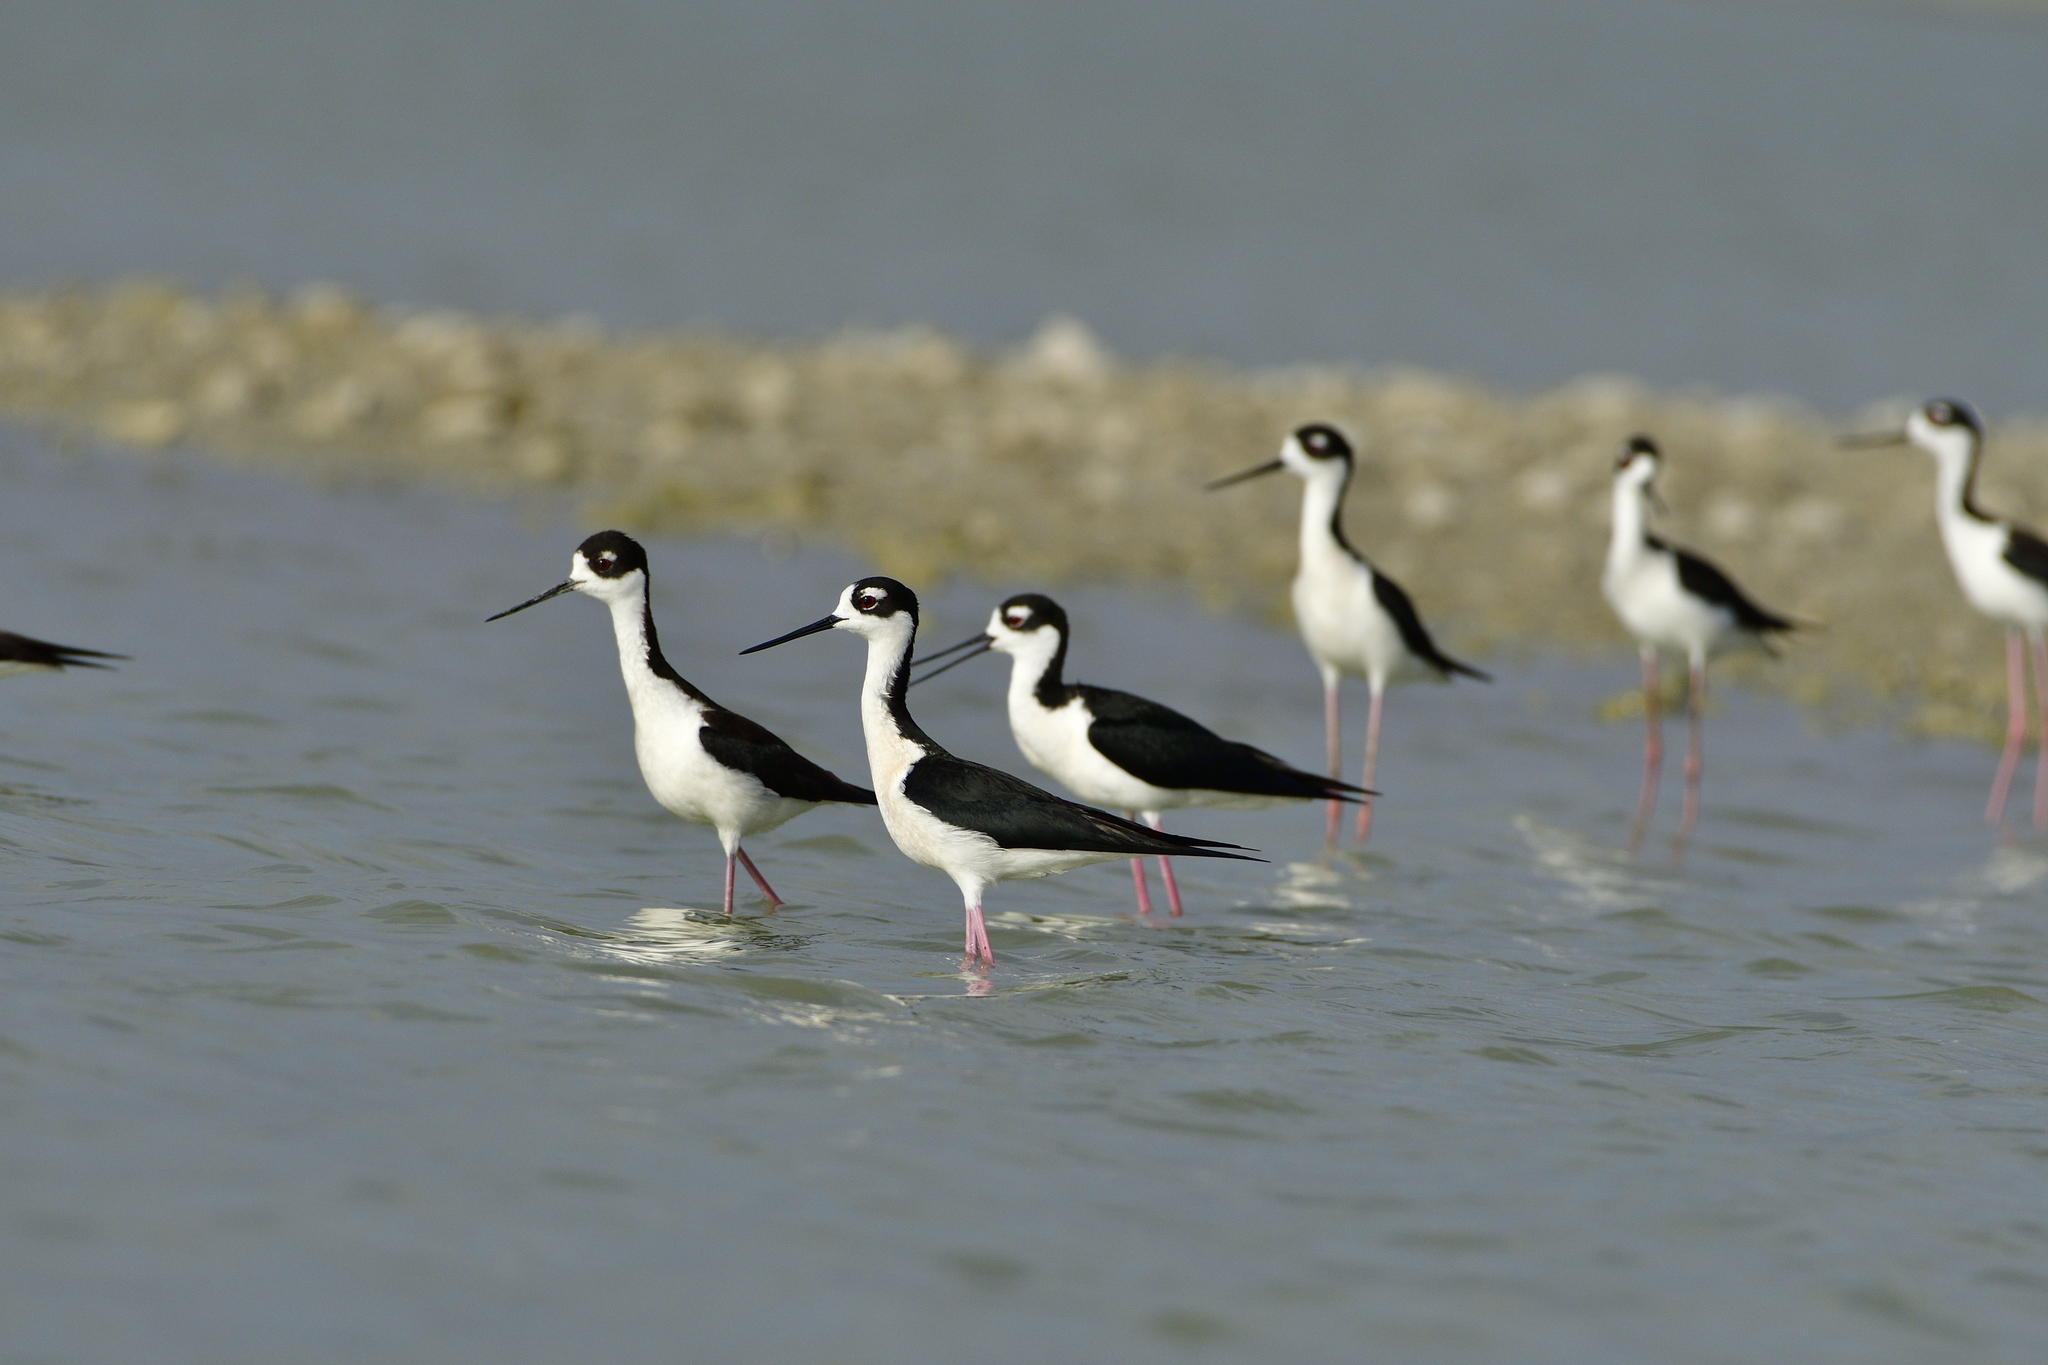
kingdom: Animalia
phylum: Chordata
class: Aves
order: Charadriiformes
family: Recurvirostridae
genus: Himantopus
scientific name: Himantopus mexicanus
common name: Black-necked stilt
